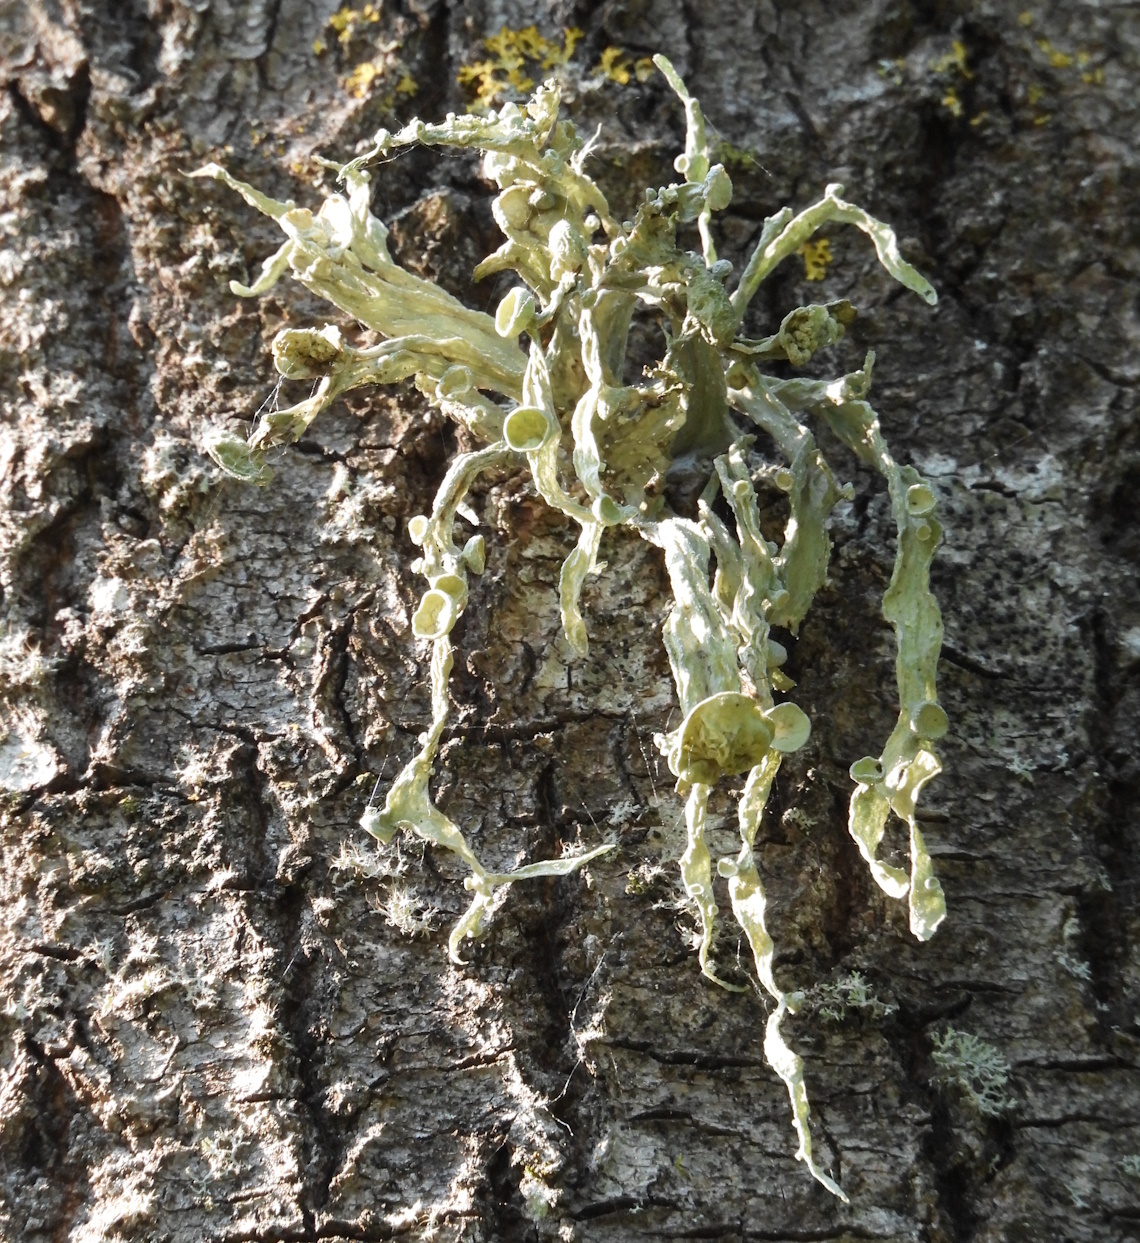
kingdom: Fungi
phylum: Ascomycota
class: Lecanoromycetes
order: Lecanorales
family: Ramalinaceae
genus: Ramalina
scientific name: Ramalina fraxinea
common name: Cartilage lichen
